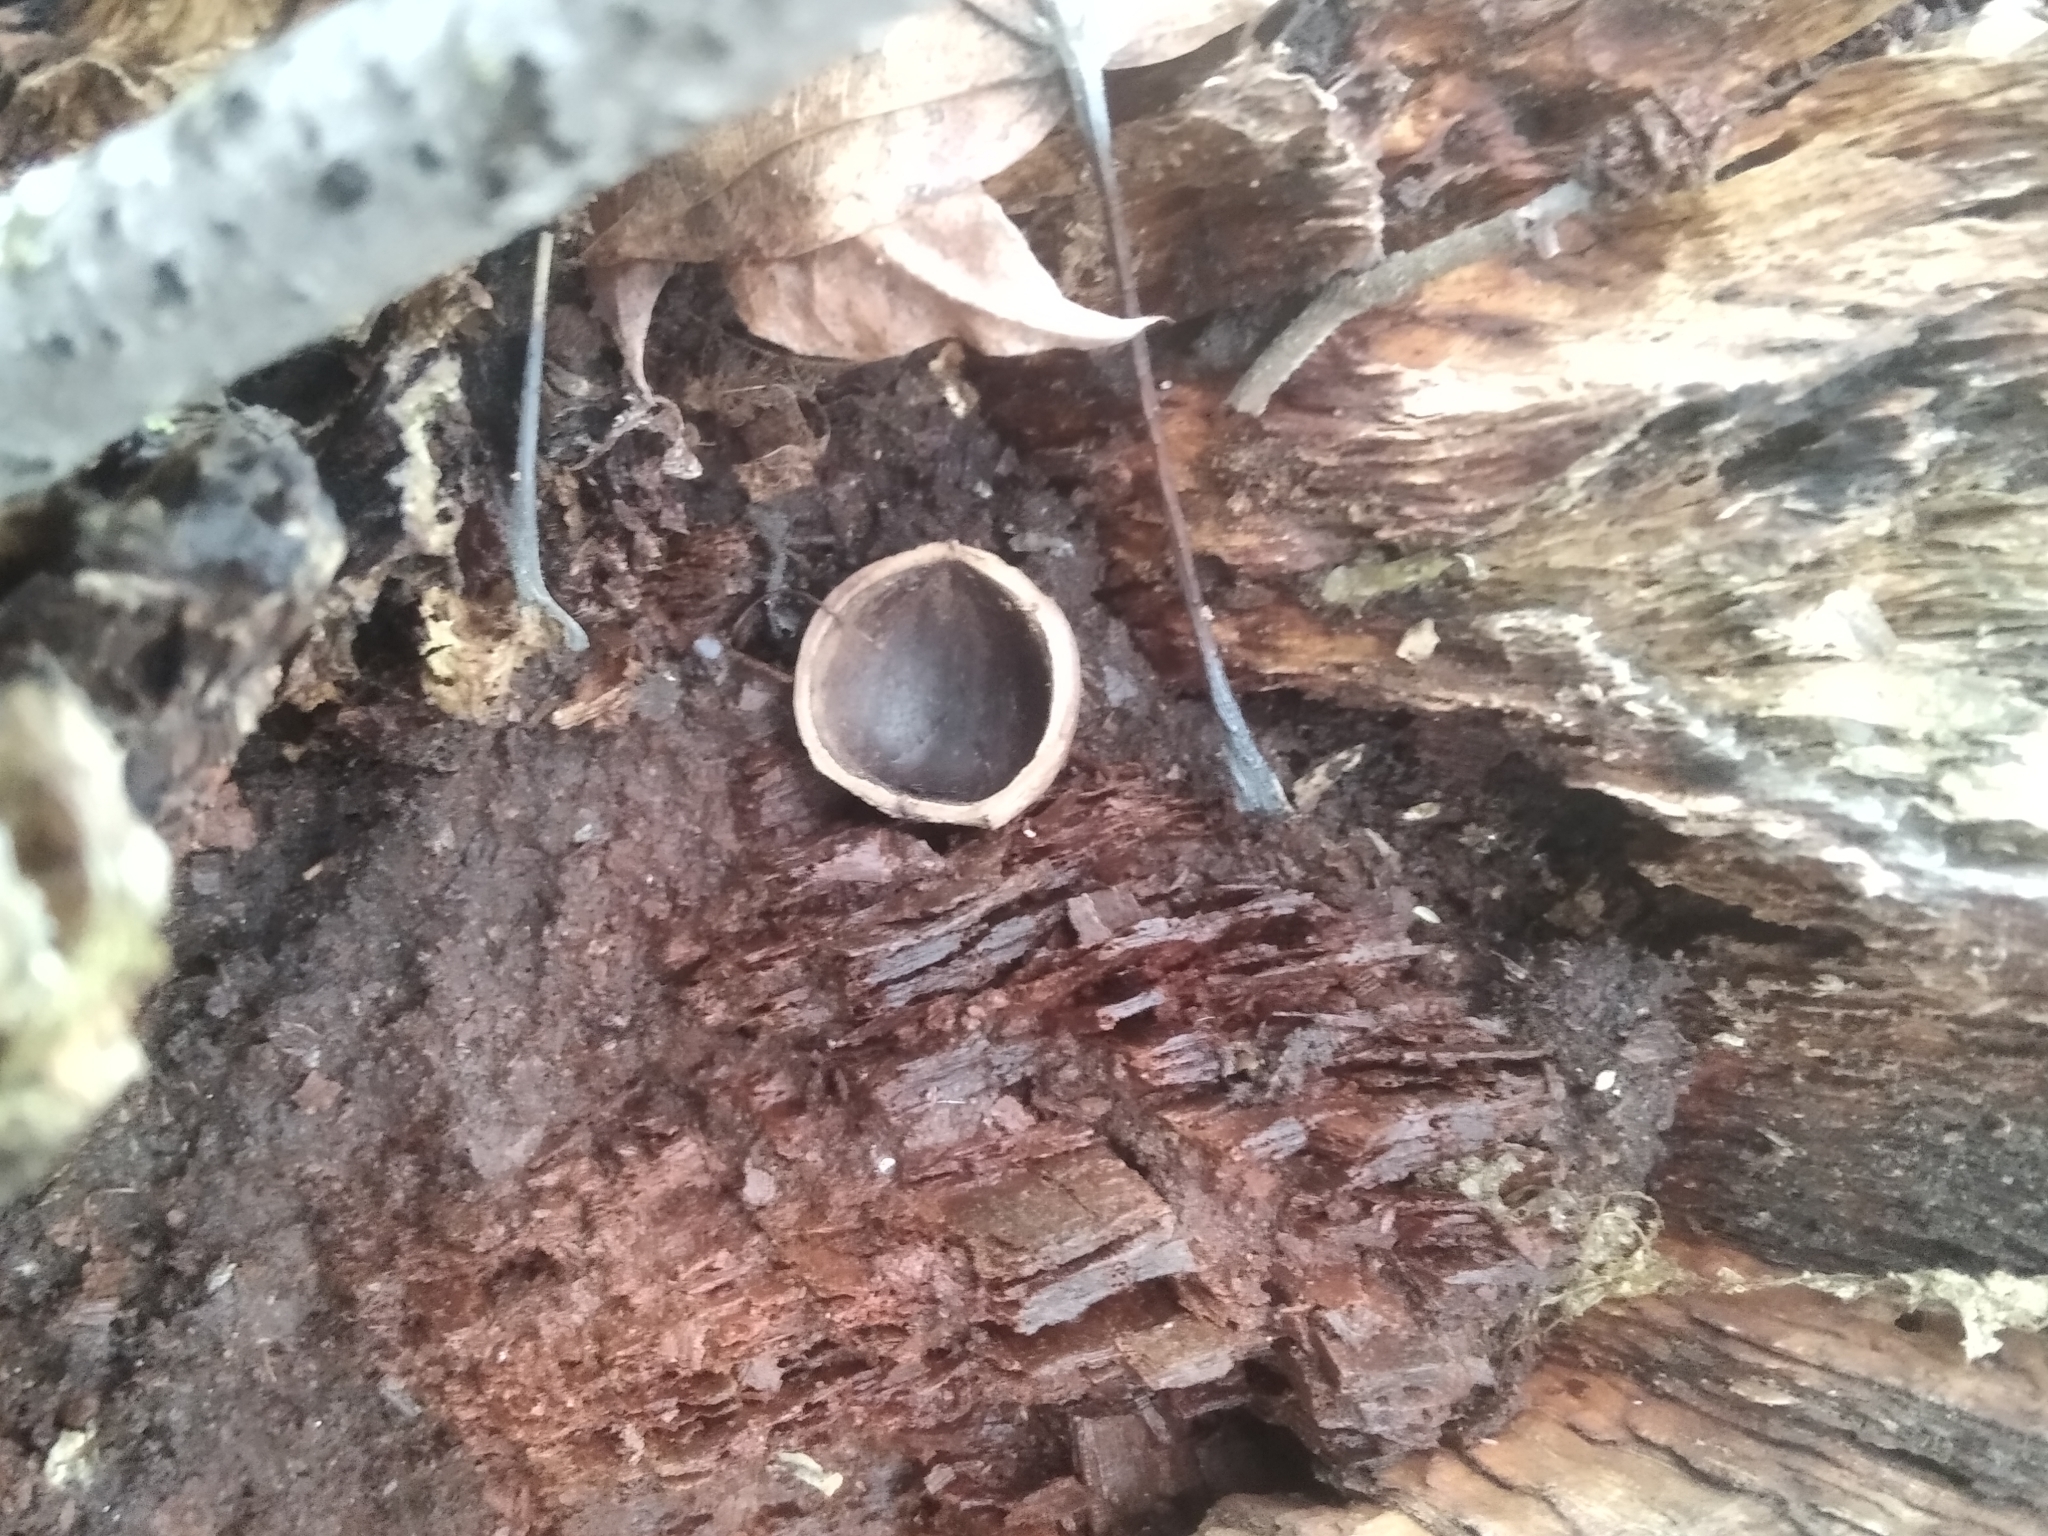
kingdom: Plantae
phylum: Tracheophyta
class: Magnoliopsida
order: Fagales
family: Betulaceae
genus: Corylus
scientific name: Corylus avellana
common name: European hazel
